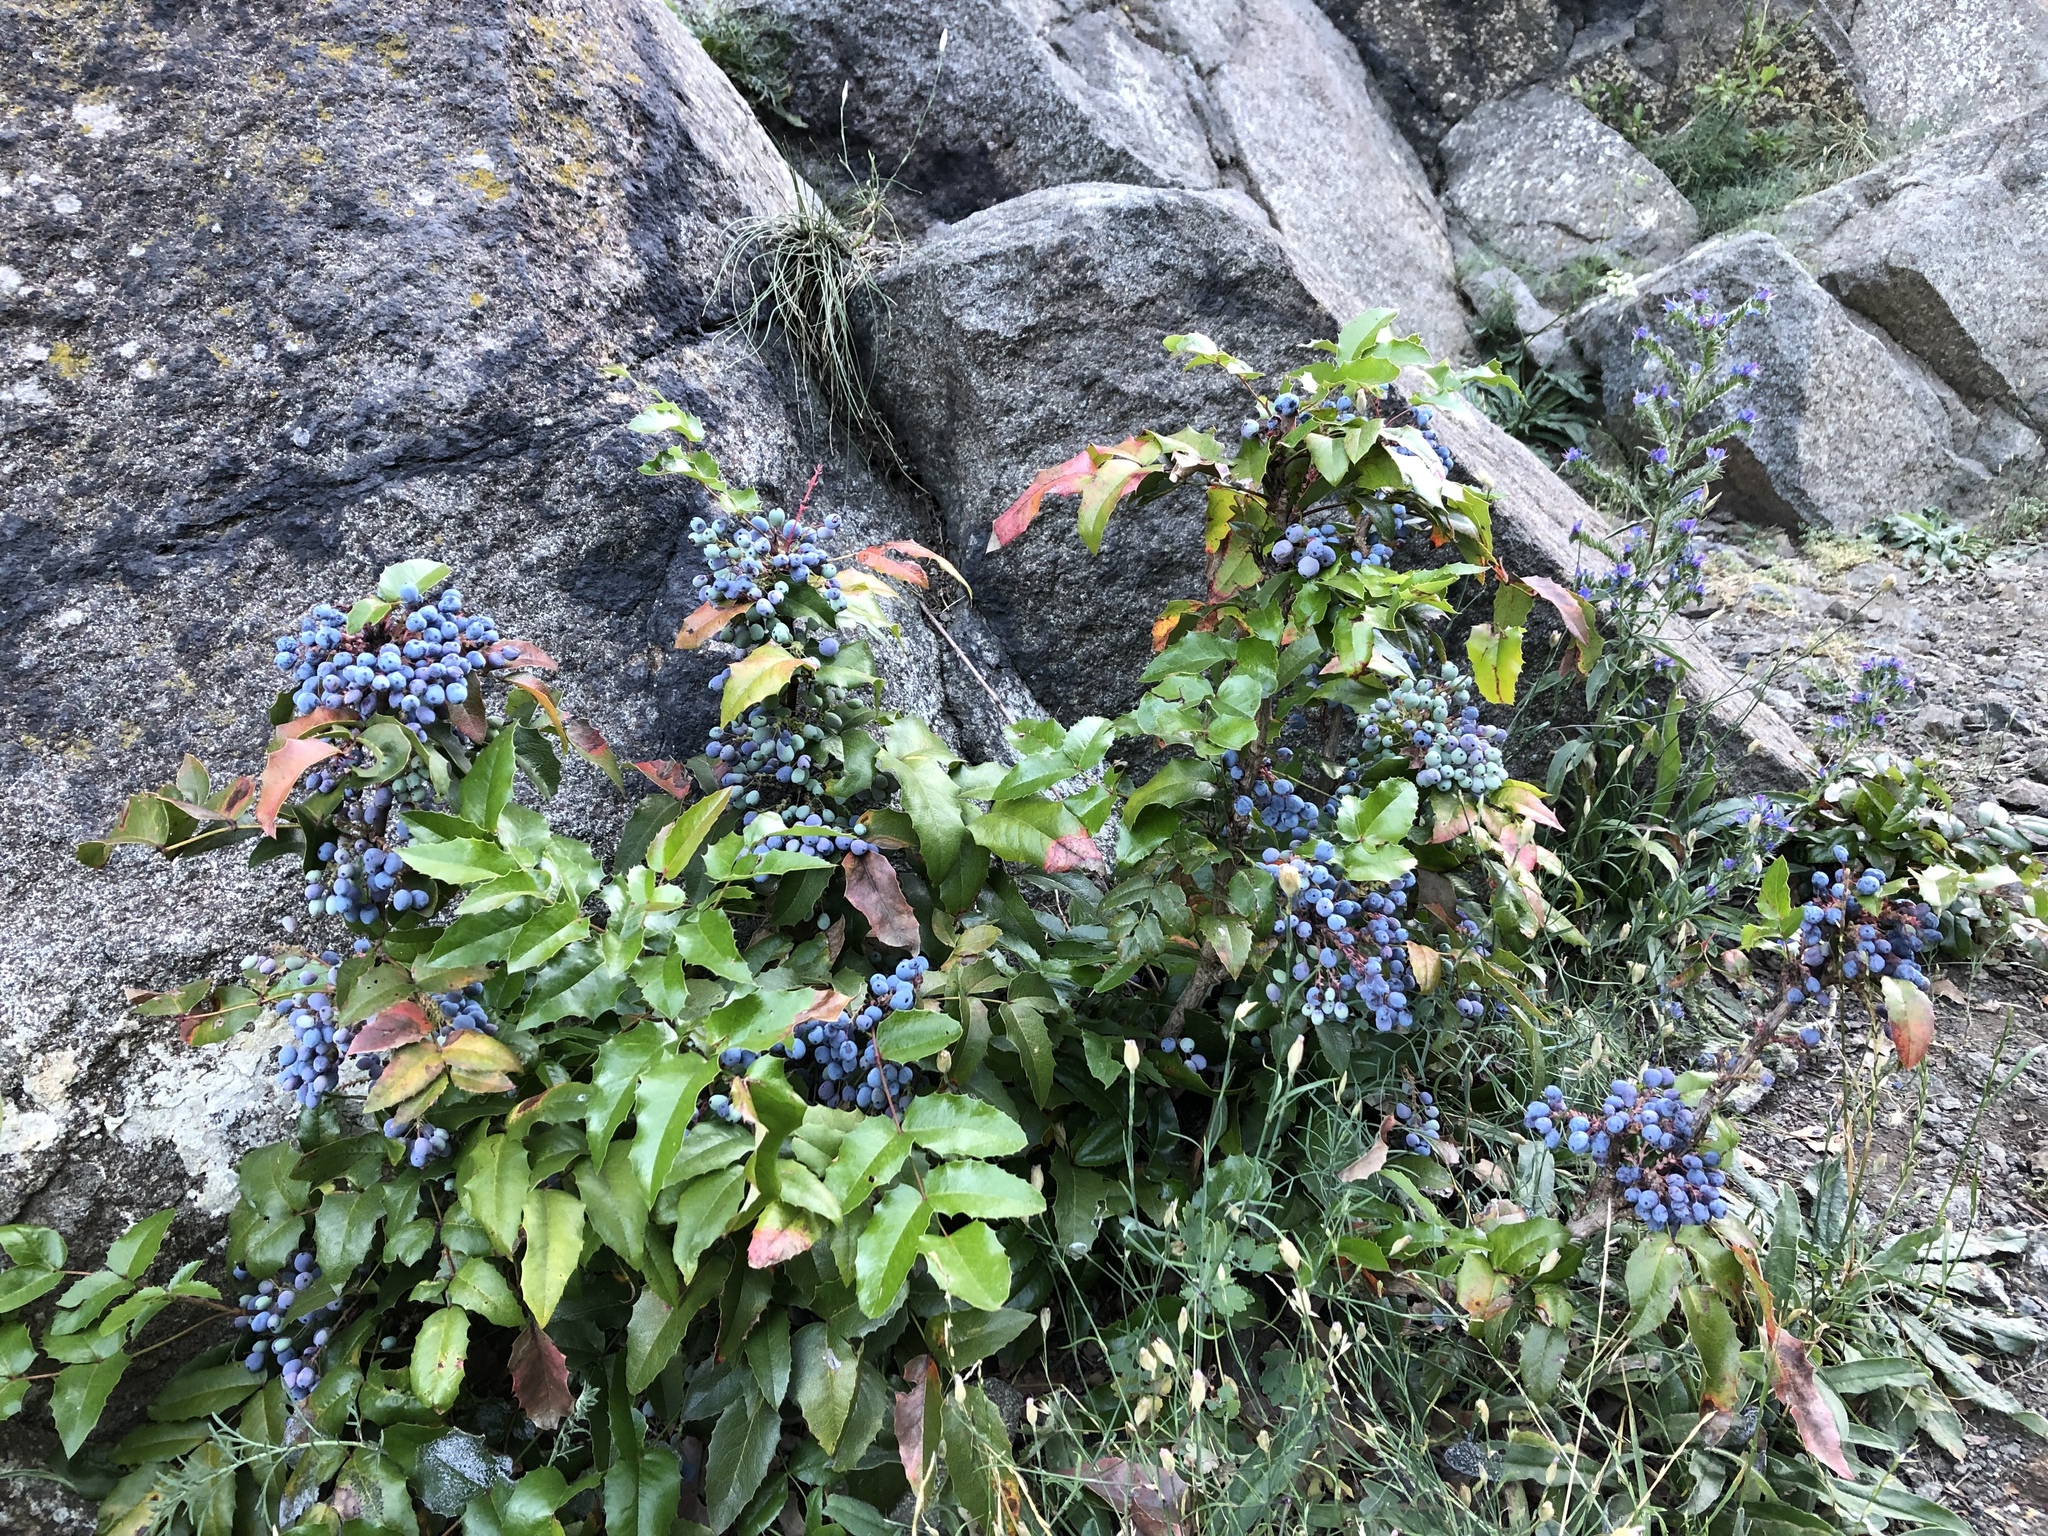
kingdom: Plantae
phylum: Tracheophyta
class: Magnoliopsida
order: Ranunculales
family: Berberidaceae
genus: Mahonia
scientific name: Mahonia aquifolium
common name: Oregon-grape
